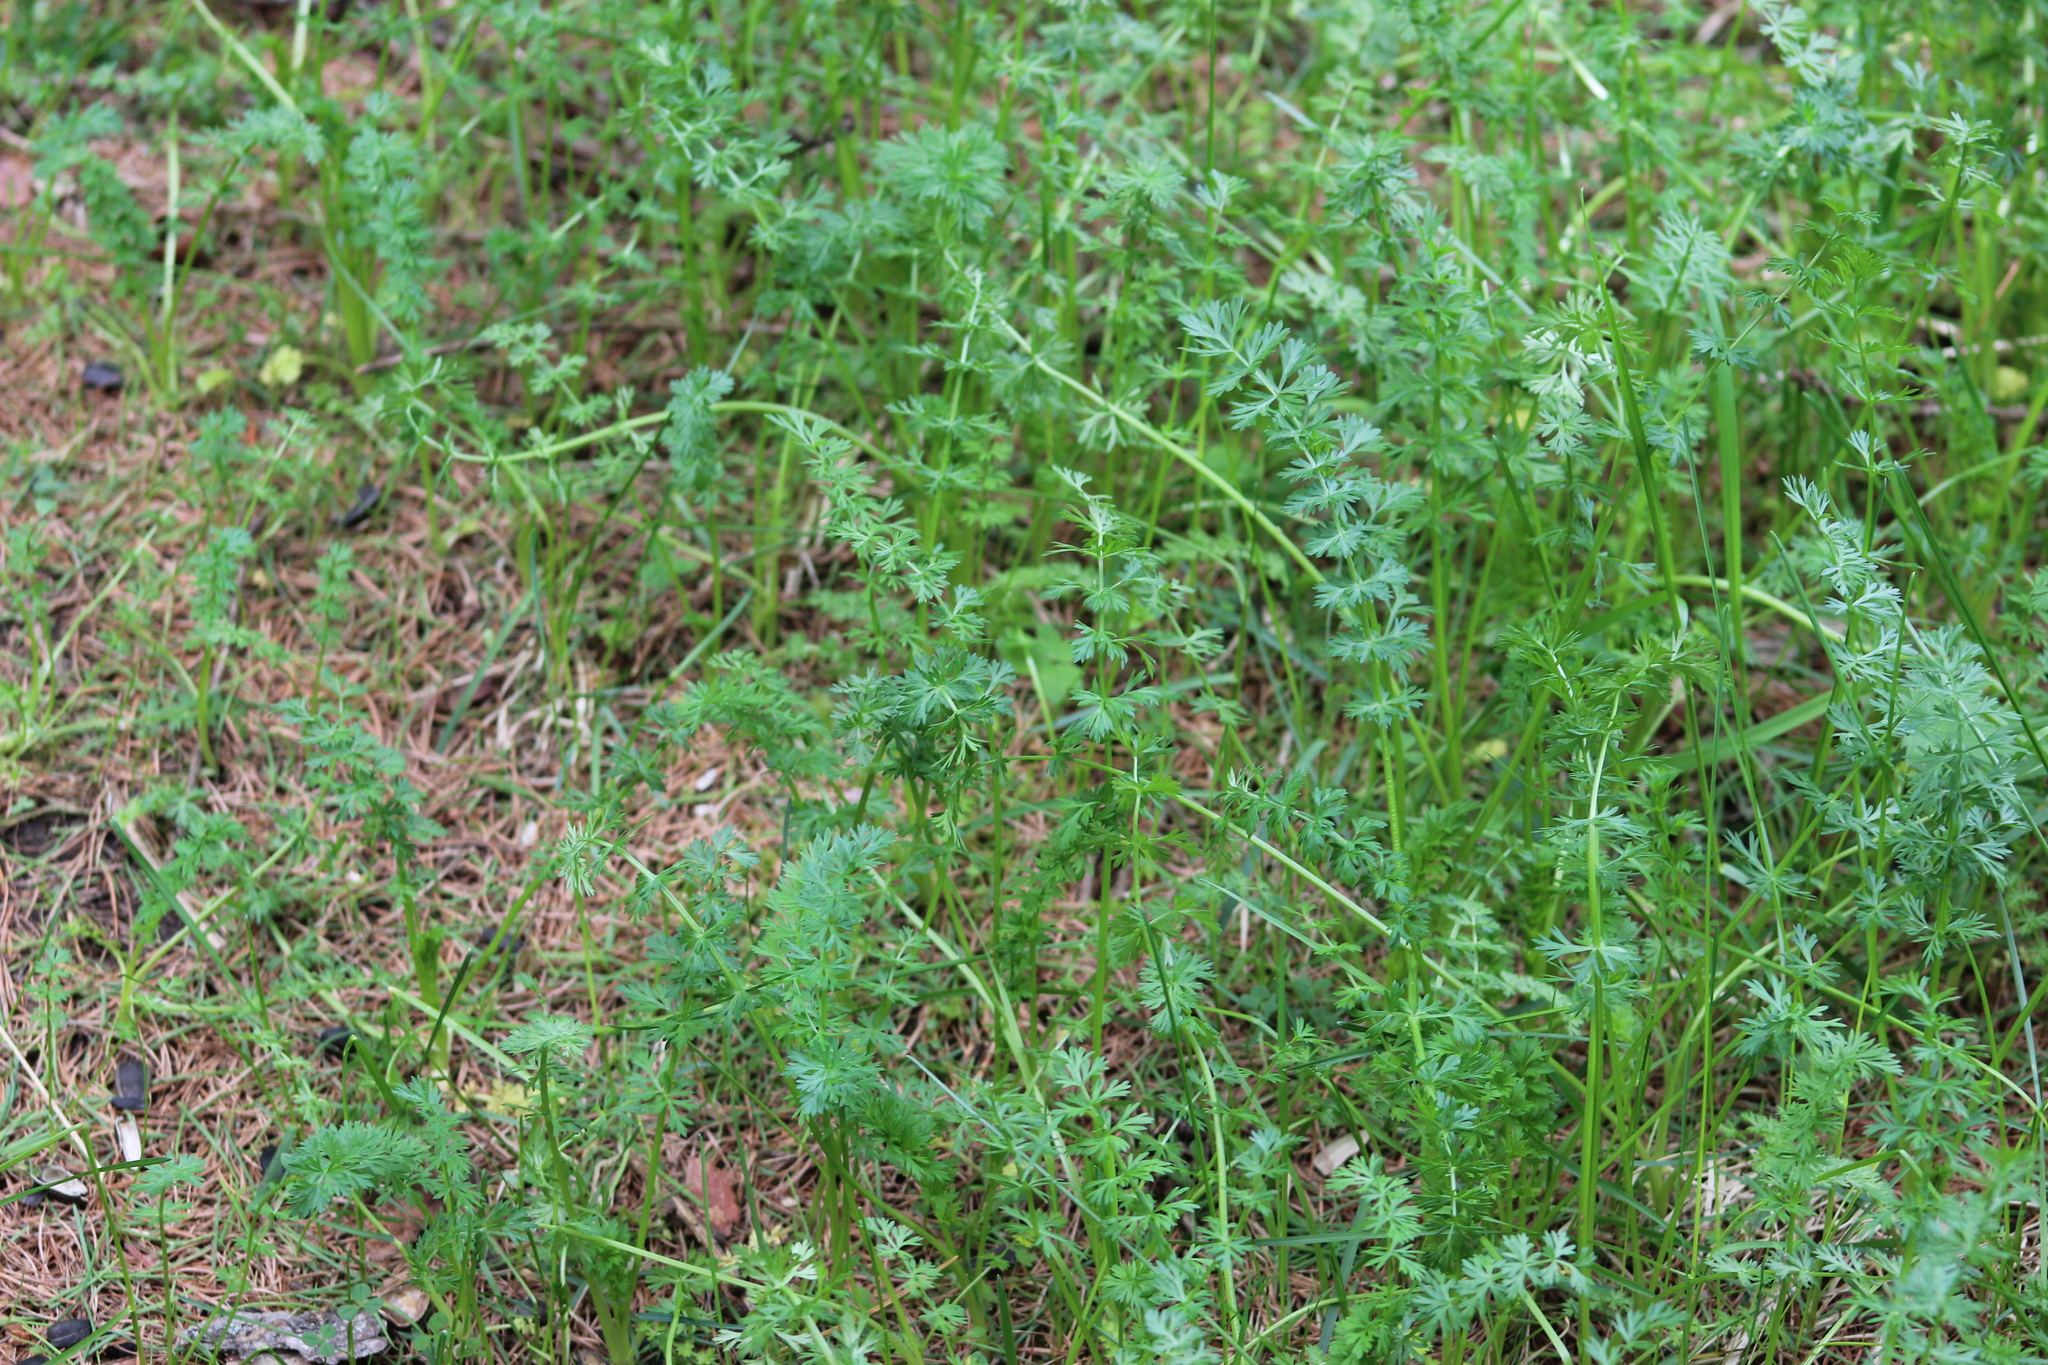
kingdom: Plantae
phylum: Tracheophyta
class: Magnoliopsida
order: Apiales
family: Apiaceae
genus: Carum
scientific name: Carum carvi
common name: Caraway
